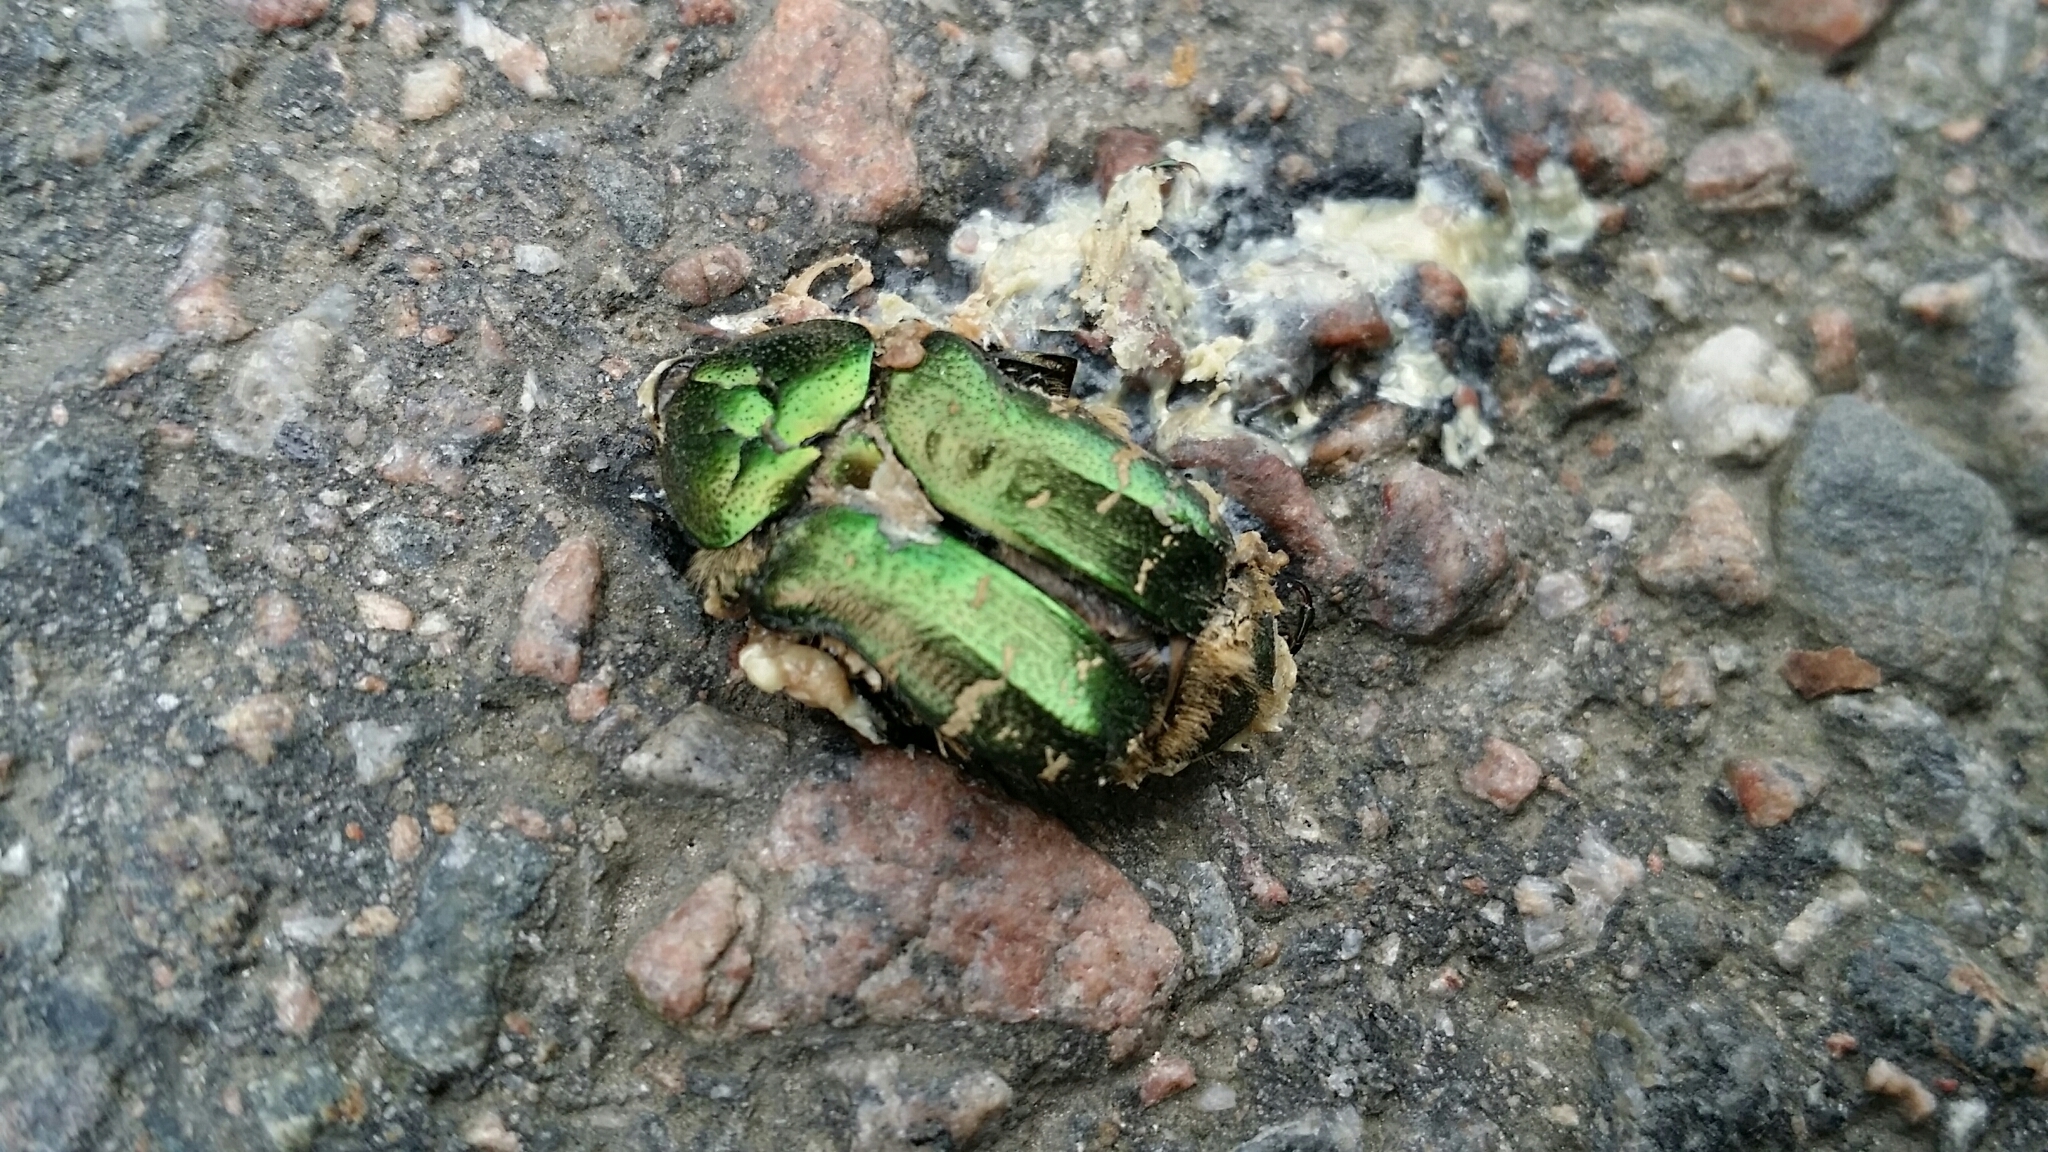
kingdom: Animalia
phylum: Arthropoda
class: Insecta
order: Coleoptera
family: Scarabaeidae
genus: Cetonia
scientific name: Cetonia aurata
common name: Rose chafer
